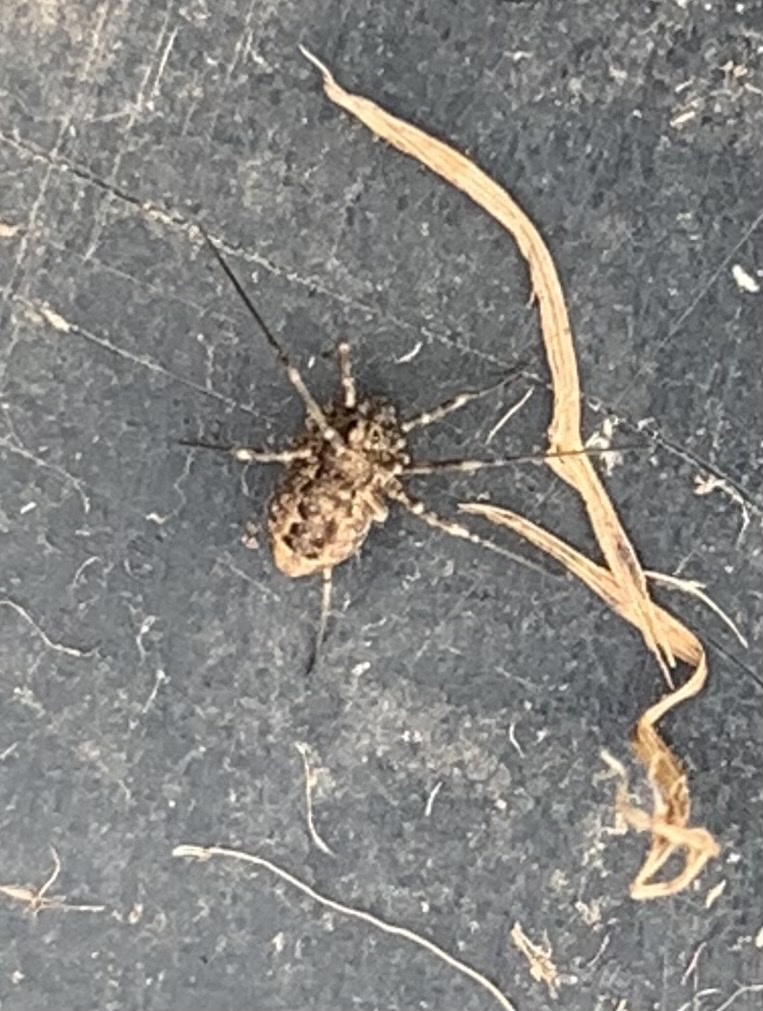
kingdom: Animalia
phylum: Arthropoda
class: Arachnida
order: Opiliones
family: Phalangiidae
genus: Rilaena
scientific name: Rilaena triangularis
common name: Spring harvestman
